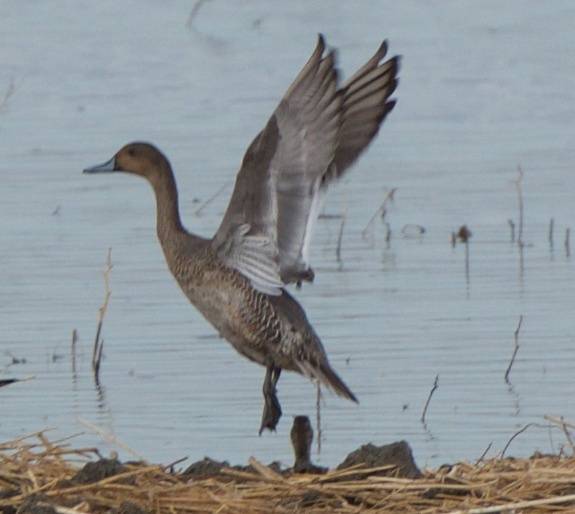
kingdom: Animalia
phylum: Chordata
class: Aves
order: Anseriformes
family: Anatidae
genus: Anas
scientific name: Anas acuta
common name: Northern pintail
